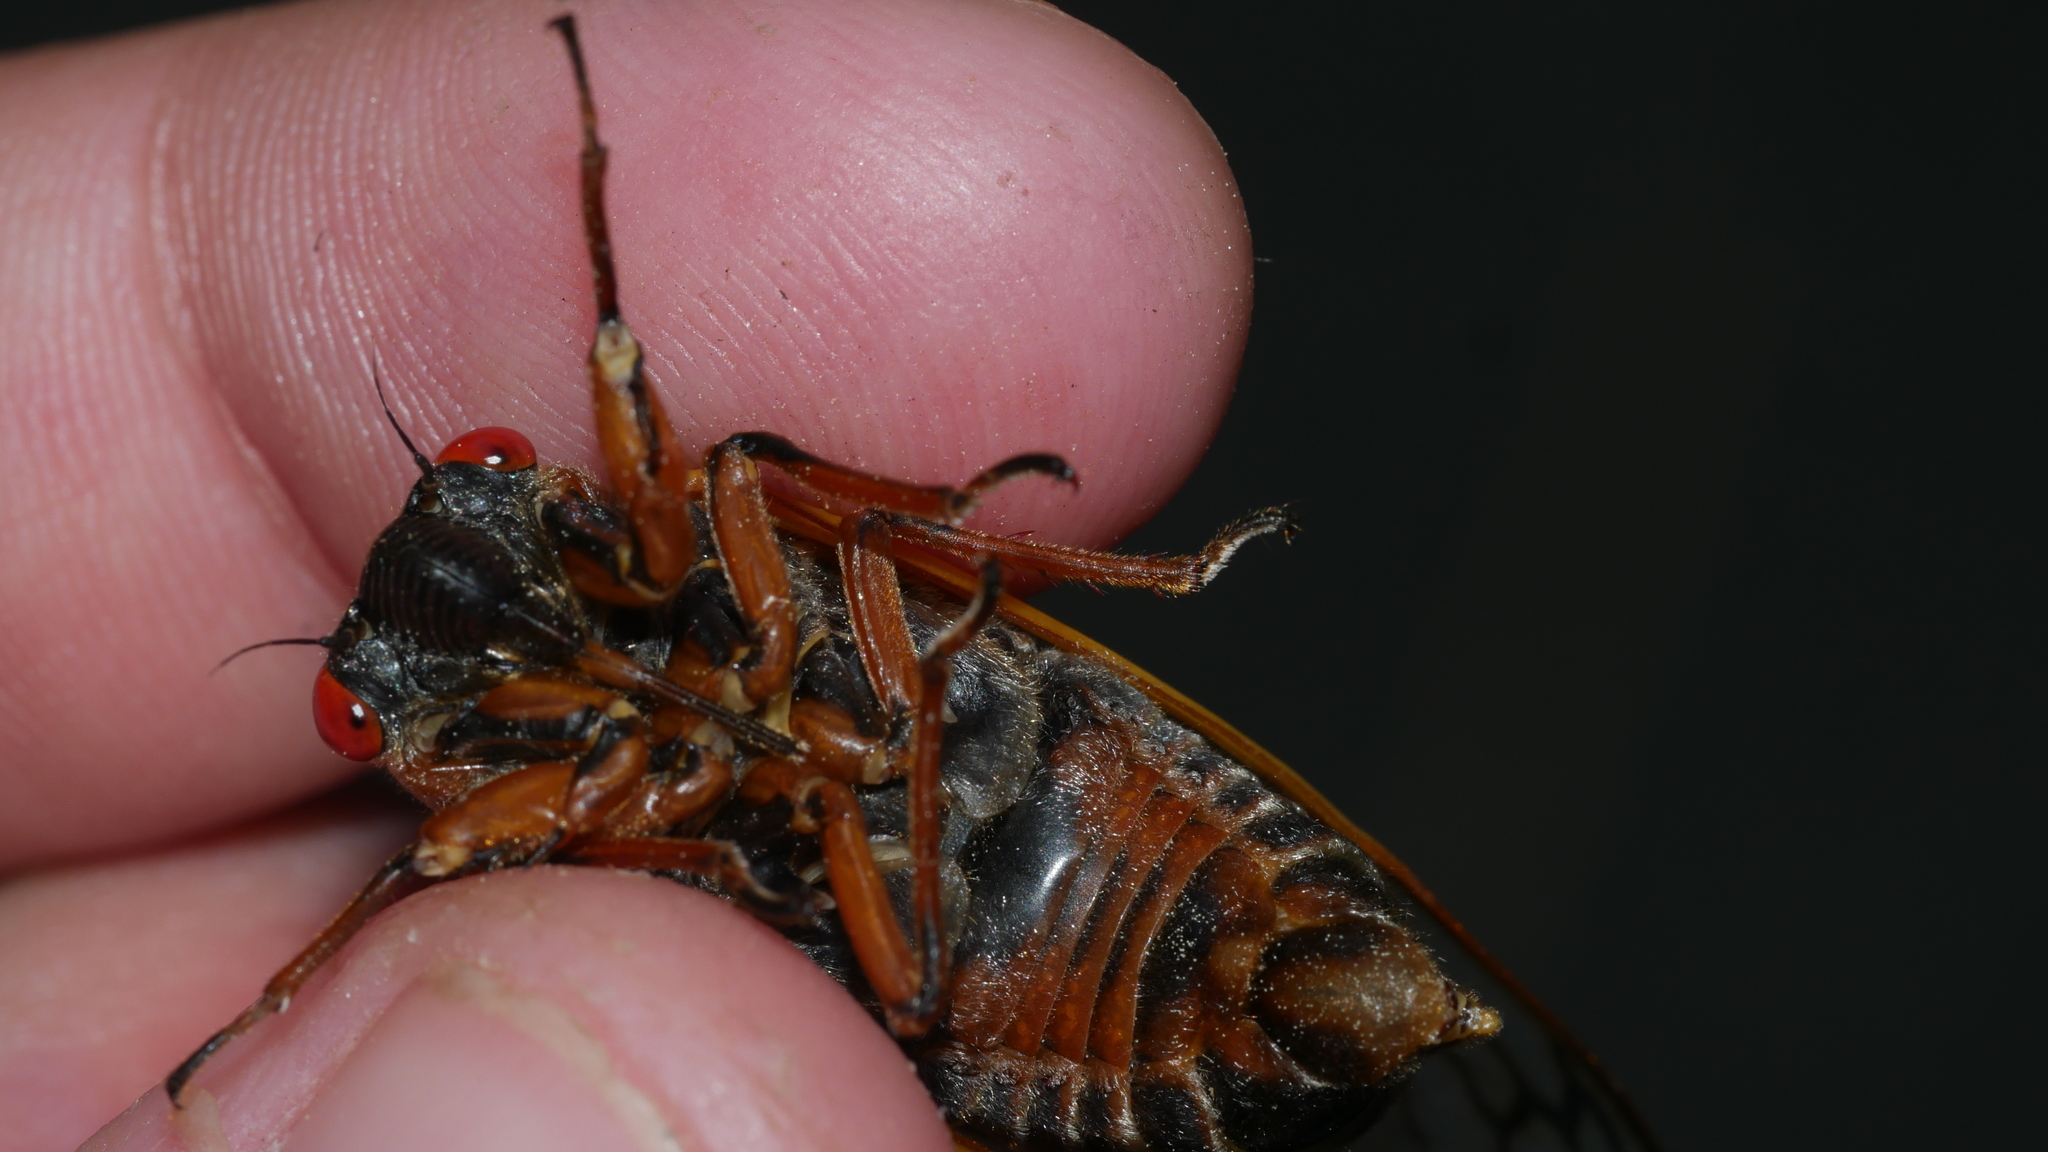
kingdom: Animalia
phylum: Arthropoda
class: Insecta
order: Hemiptera
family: Cicadidae
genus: Magicicada
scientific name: Magicicada septendecim
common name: Periodical cicada
